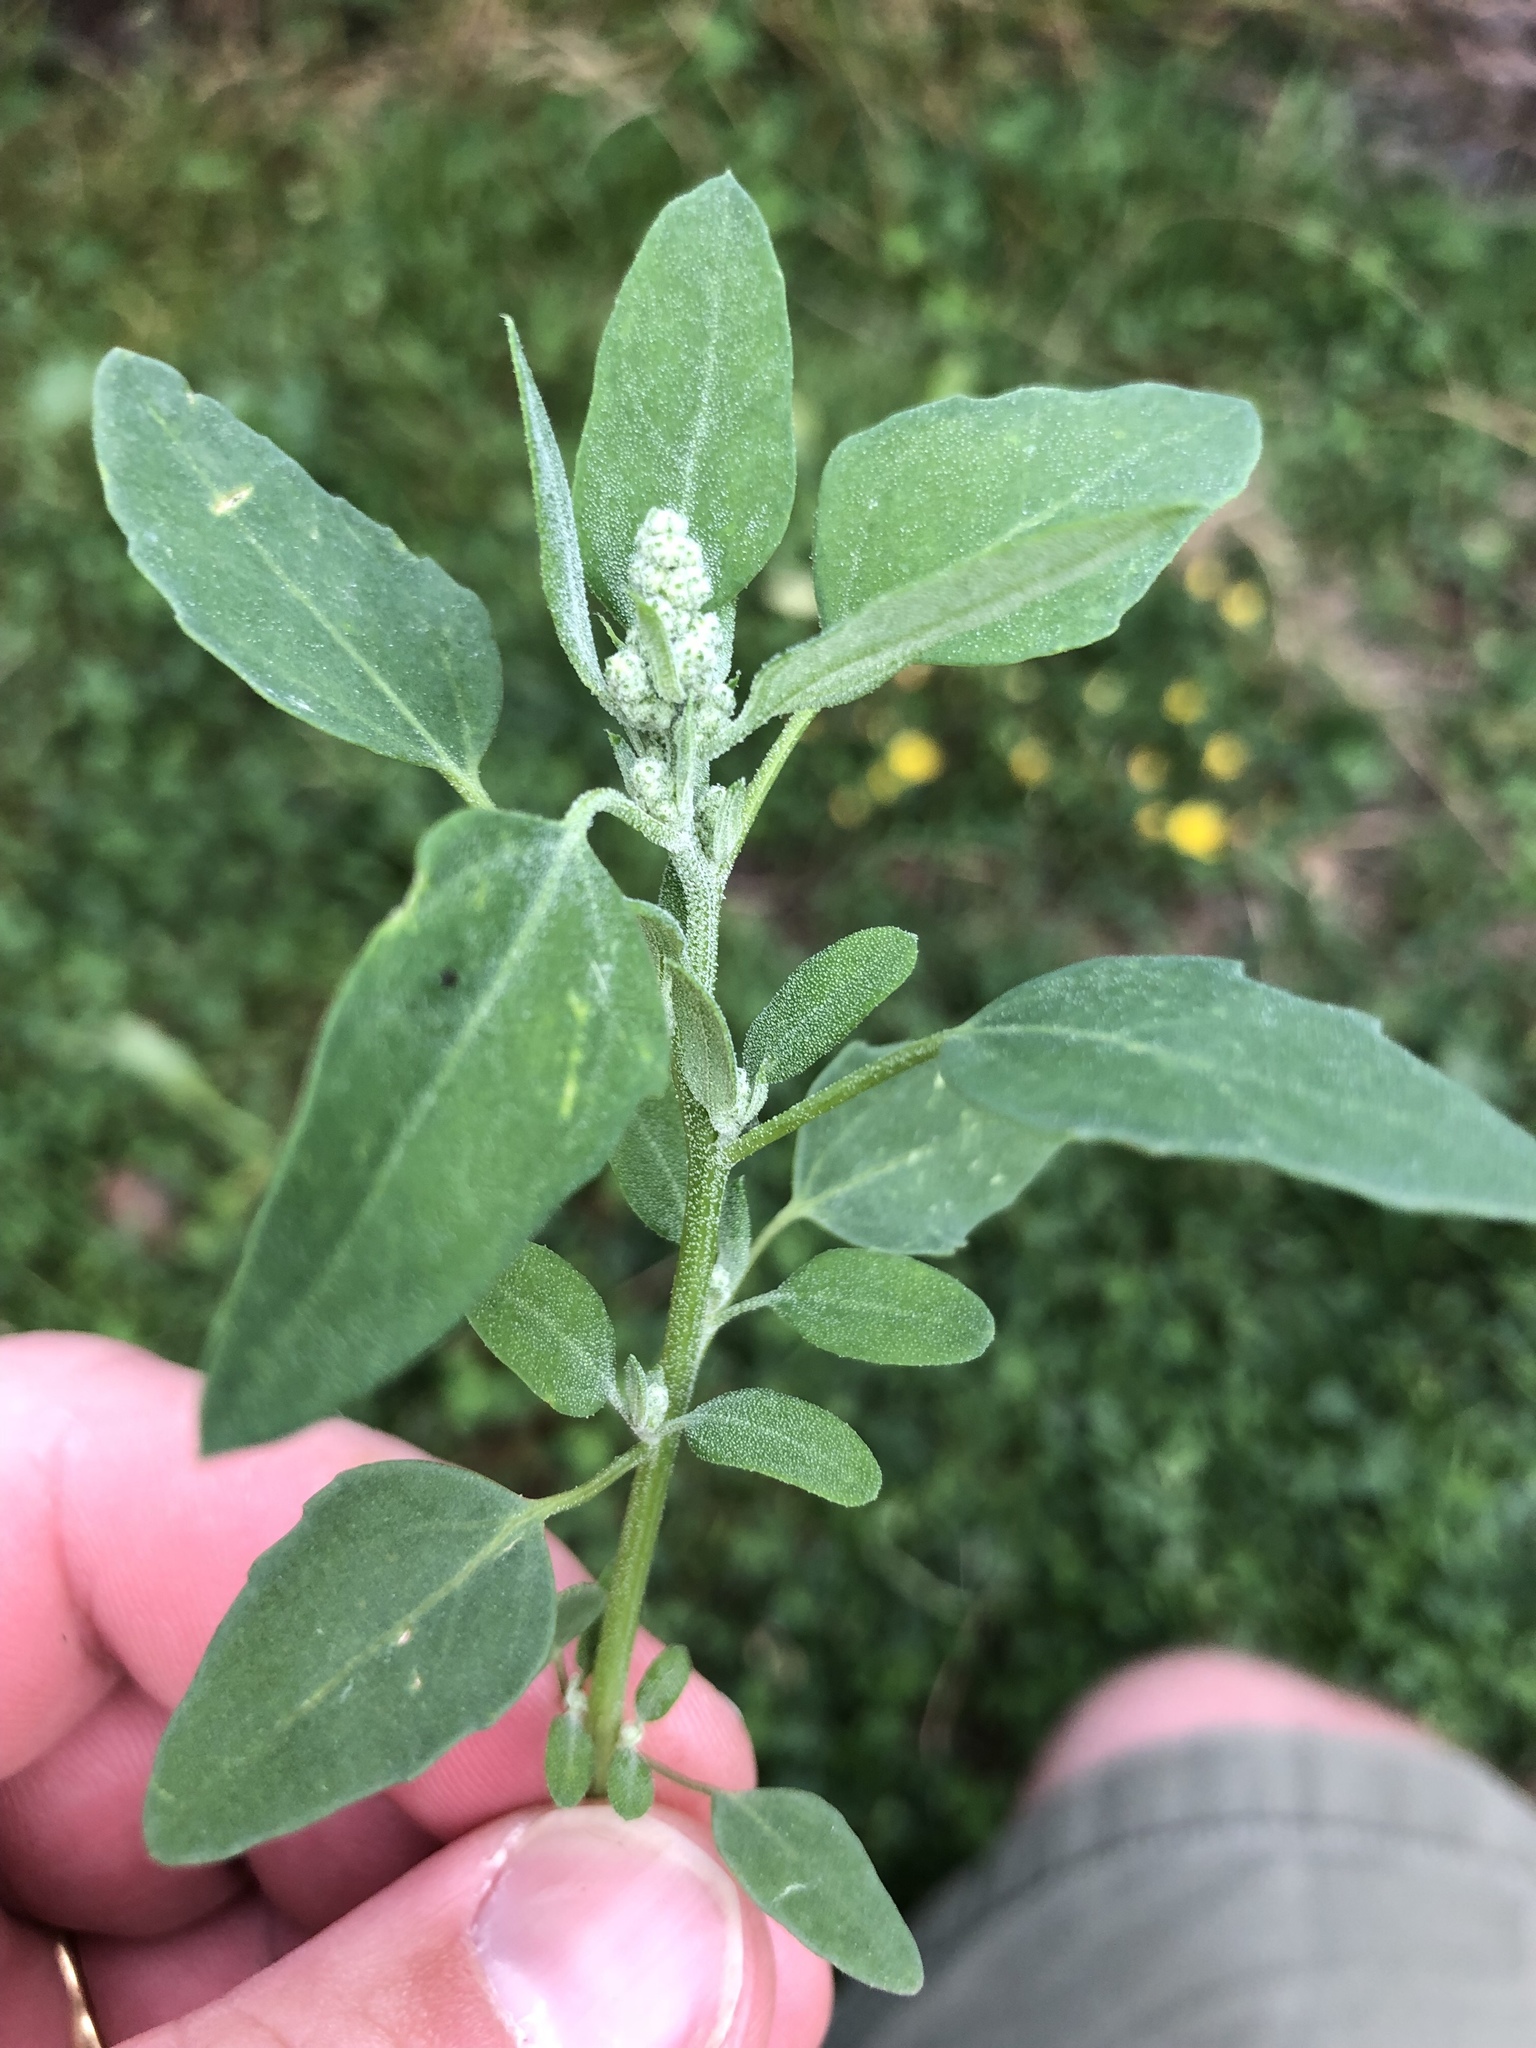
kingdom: Plantae
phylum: Tracheophyta
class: Magnoliopsida
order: Caryophyllales
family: Amaranthaceae
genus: Chenopodium
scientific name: Chenopodium album
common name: Fat-hen
